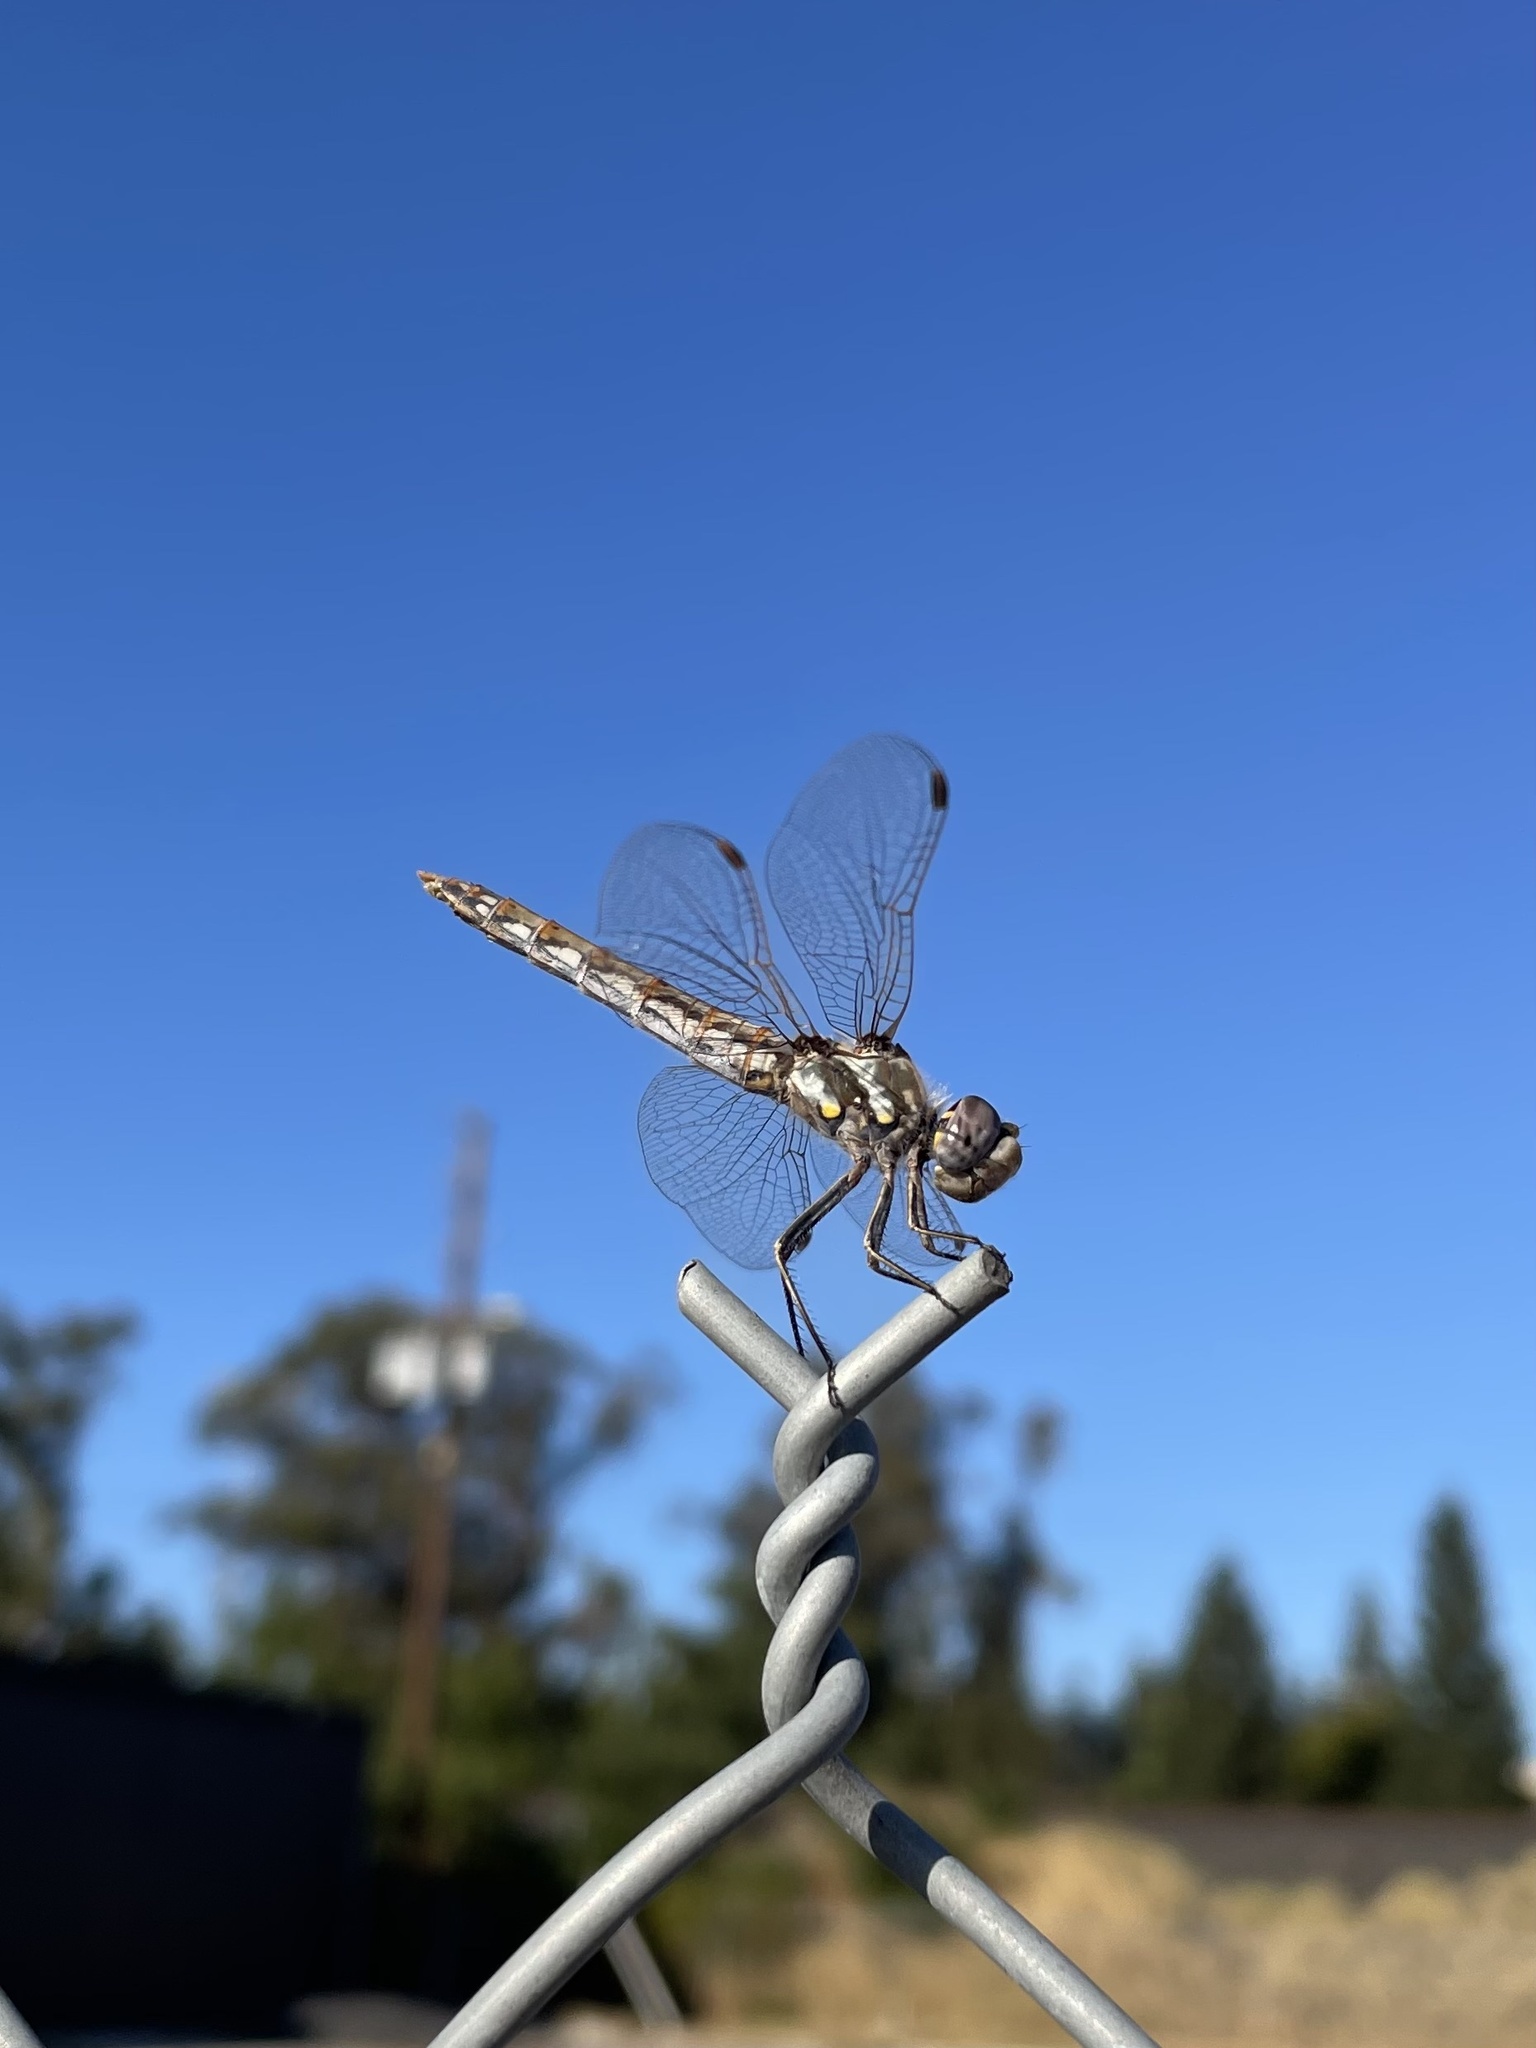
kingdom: Animalia
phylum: Arthropoda
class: Insecta
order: Odonata
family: Libellulidae
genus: Sympetrum
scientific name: Sympetrum corruptum
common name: Variegated meadowhawk
